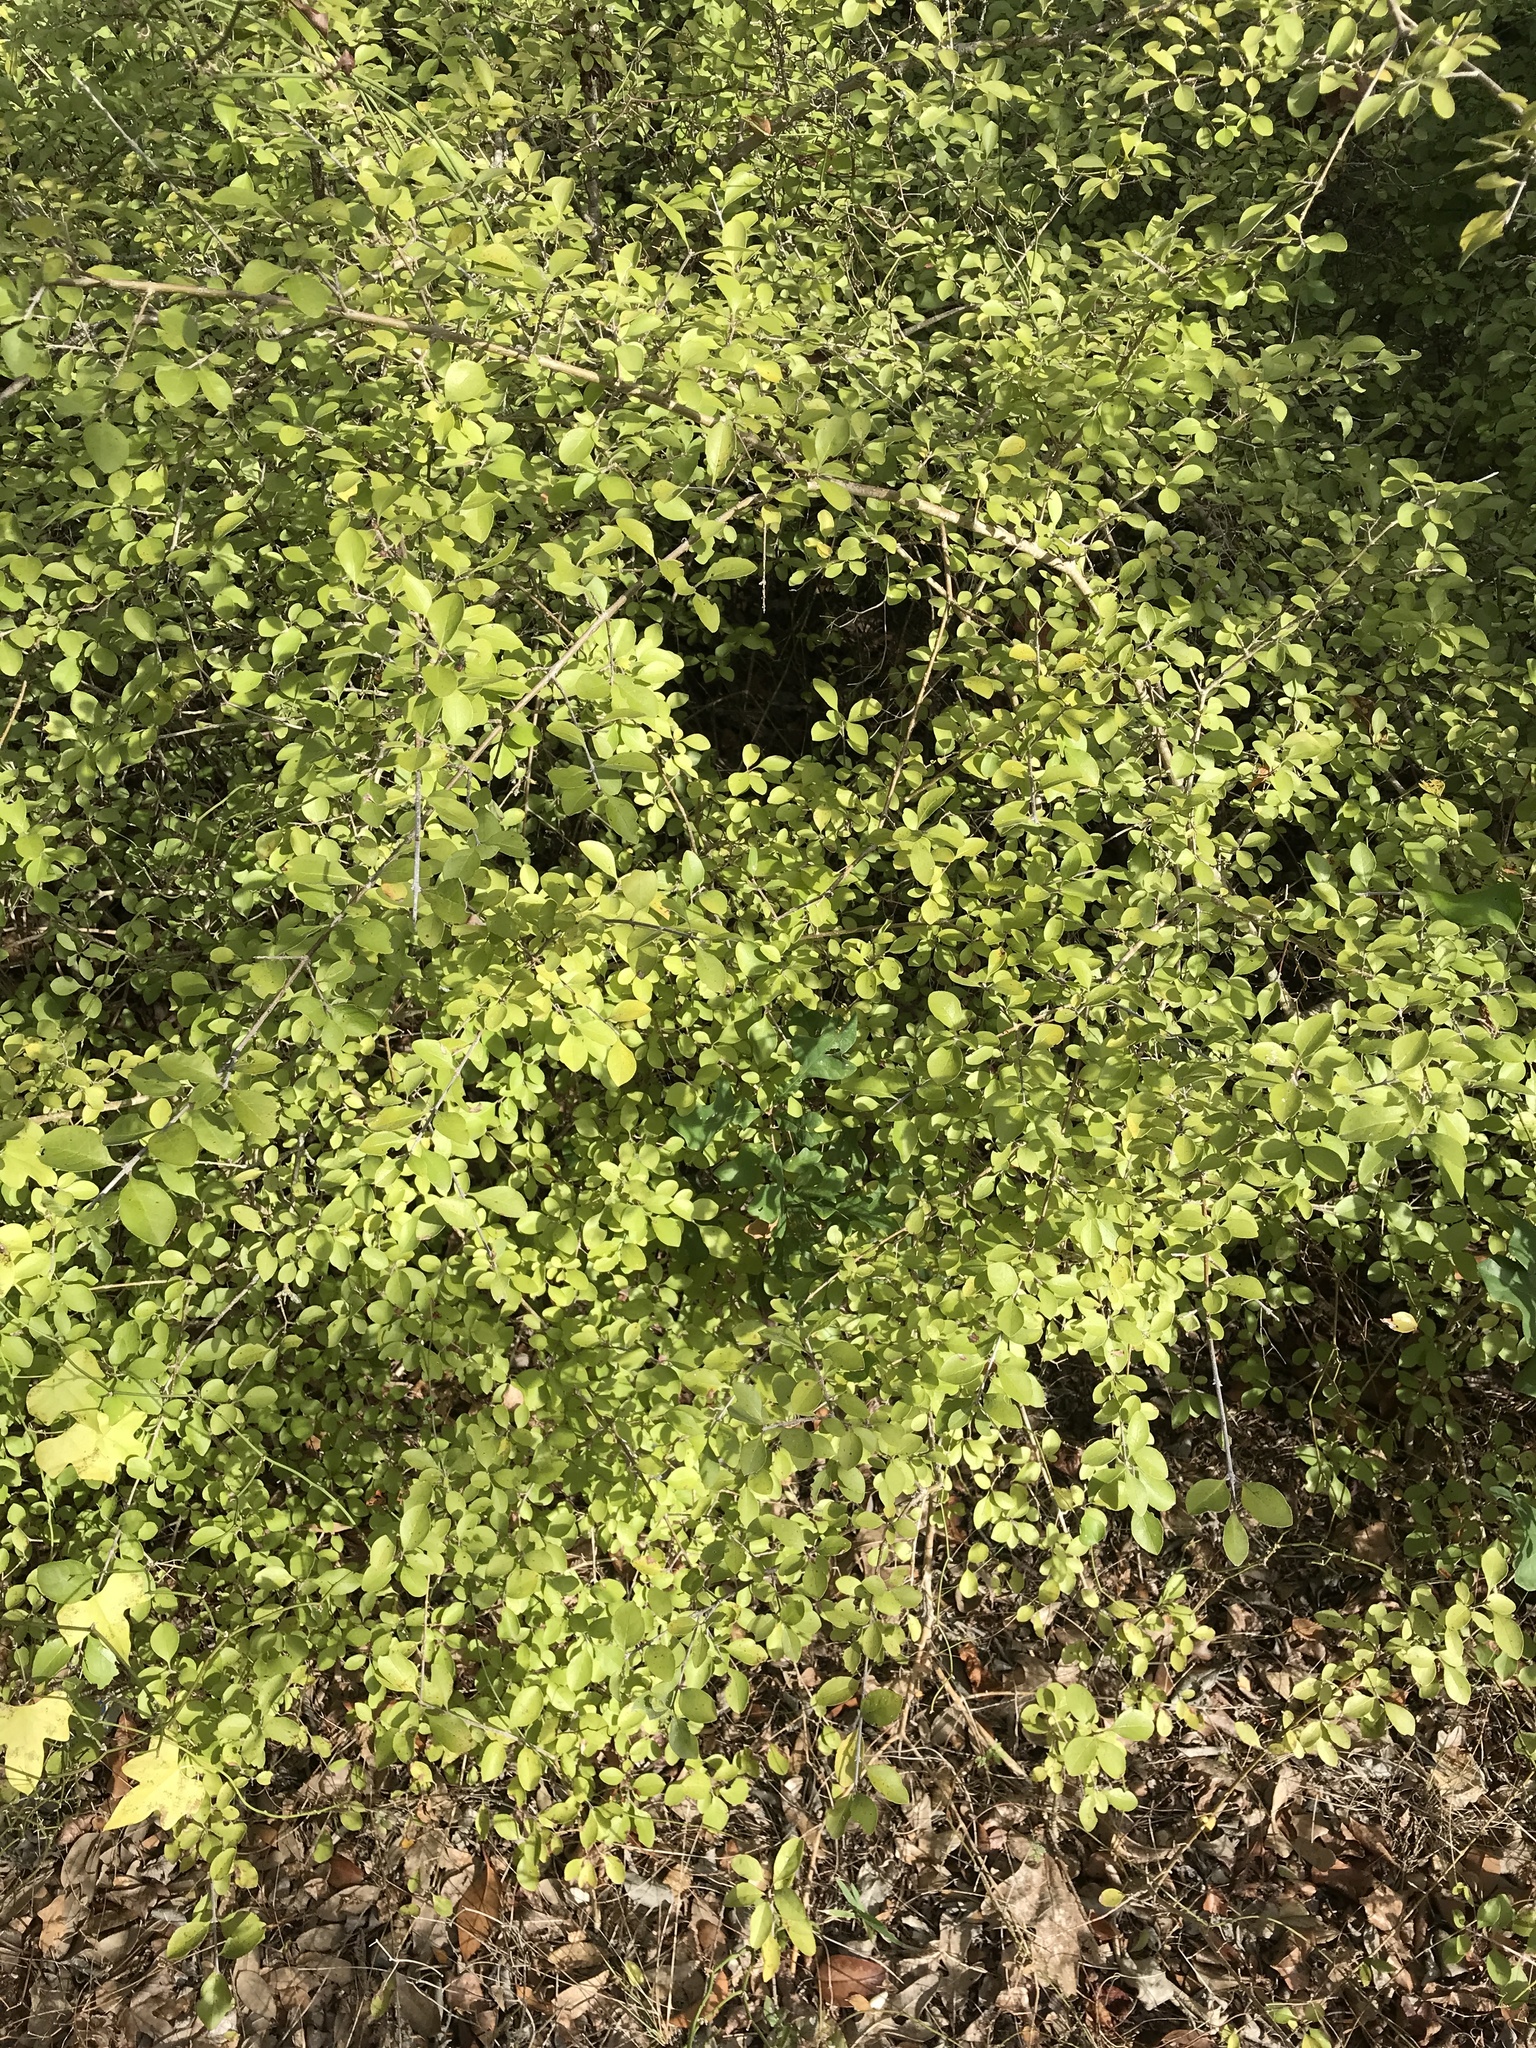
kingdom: Plantae
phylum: Tracheophyta
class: Magnoliopsida
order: Lamiales
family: Oleaceae
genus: Forestiera
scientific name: Forestiera pubescens
